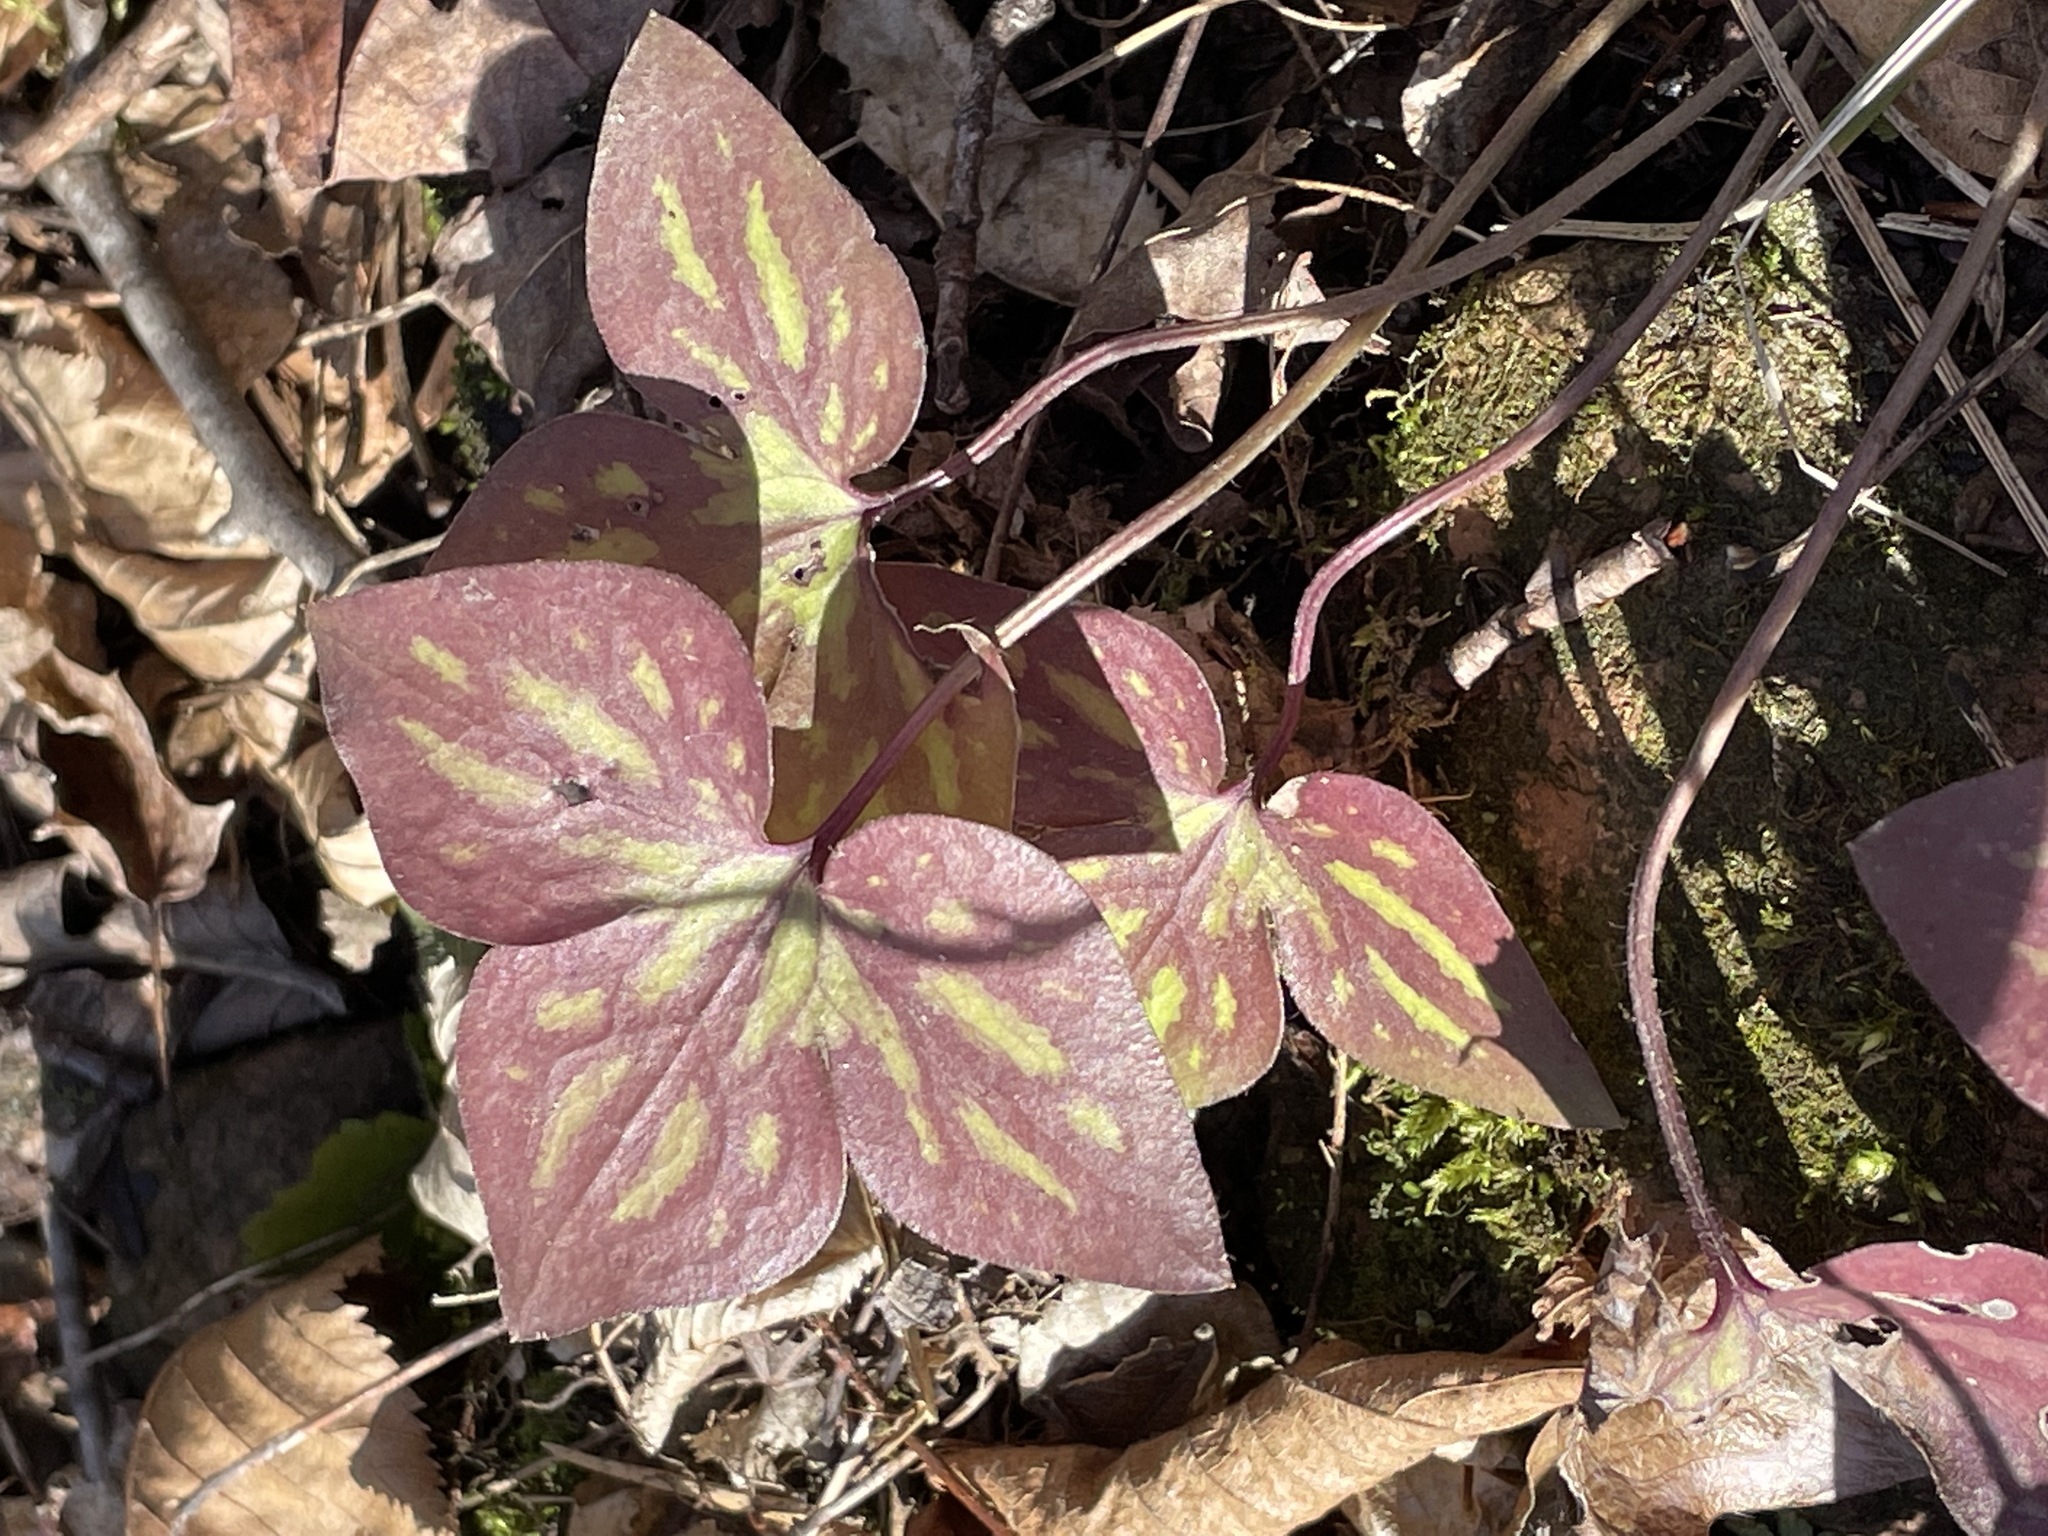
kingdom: Plantae
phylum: Tracheophyta
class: Magnoliopsida
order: Ranunculales
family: Ranunculaceae
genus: Hepatica
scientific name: Hepatica acutiloba
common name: Sharp-lobed hepatica
